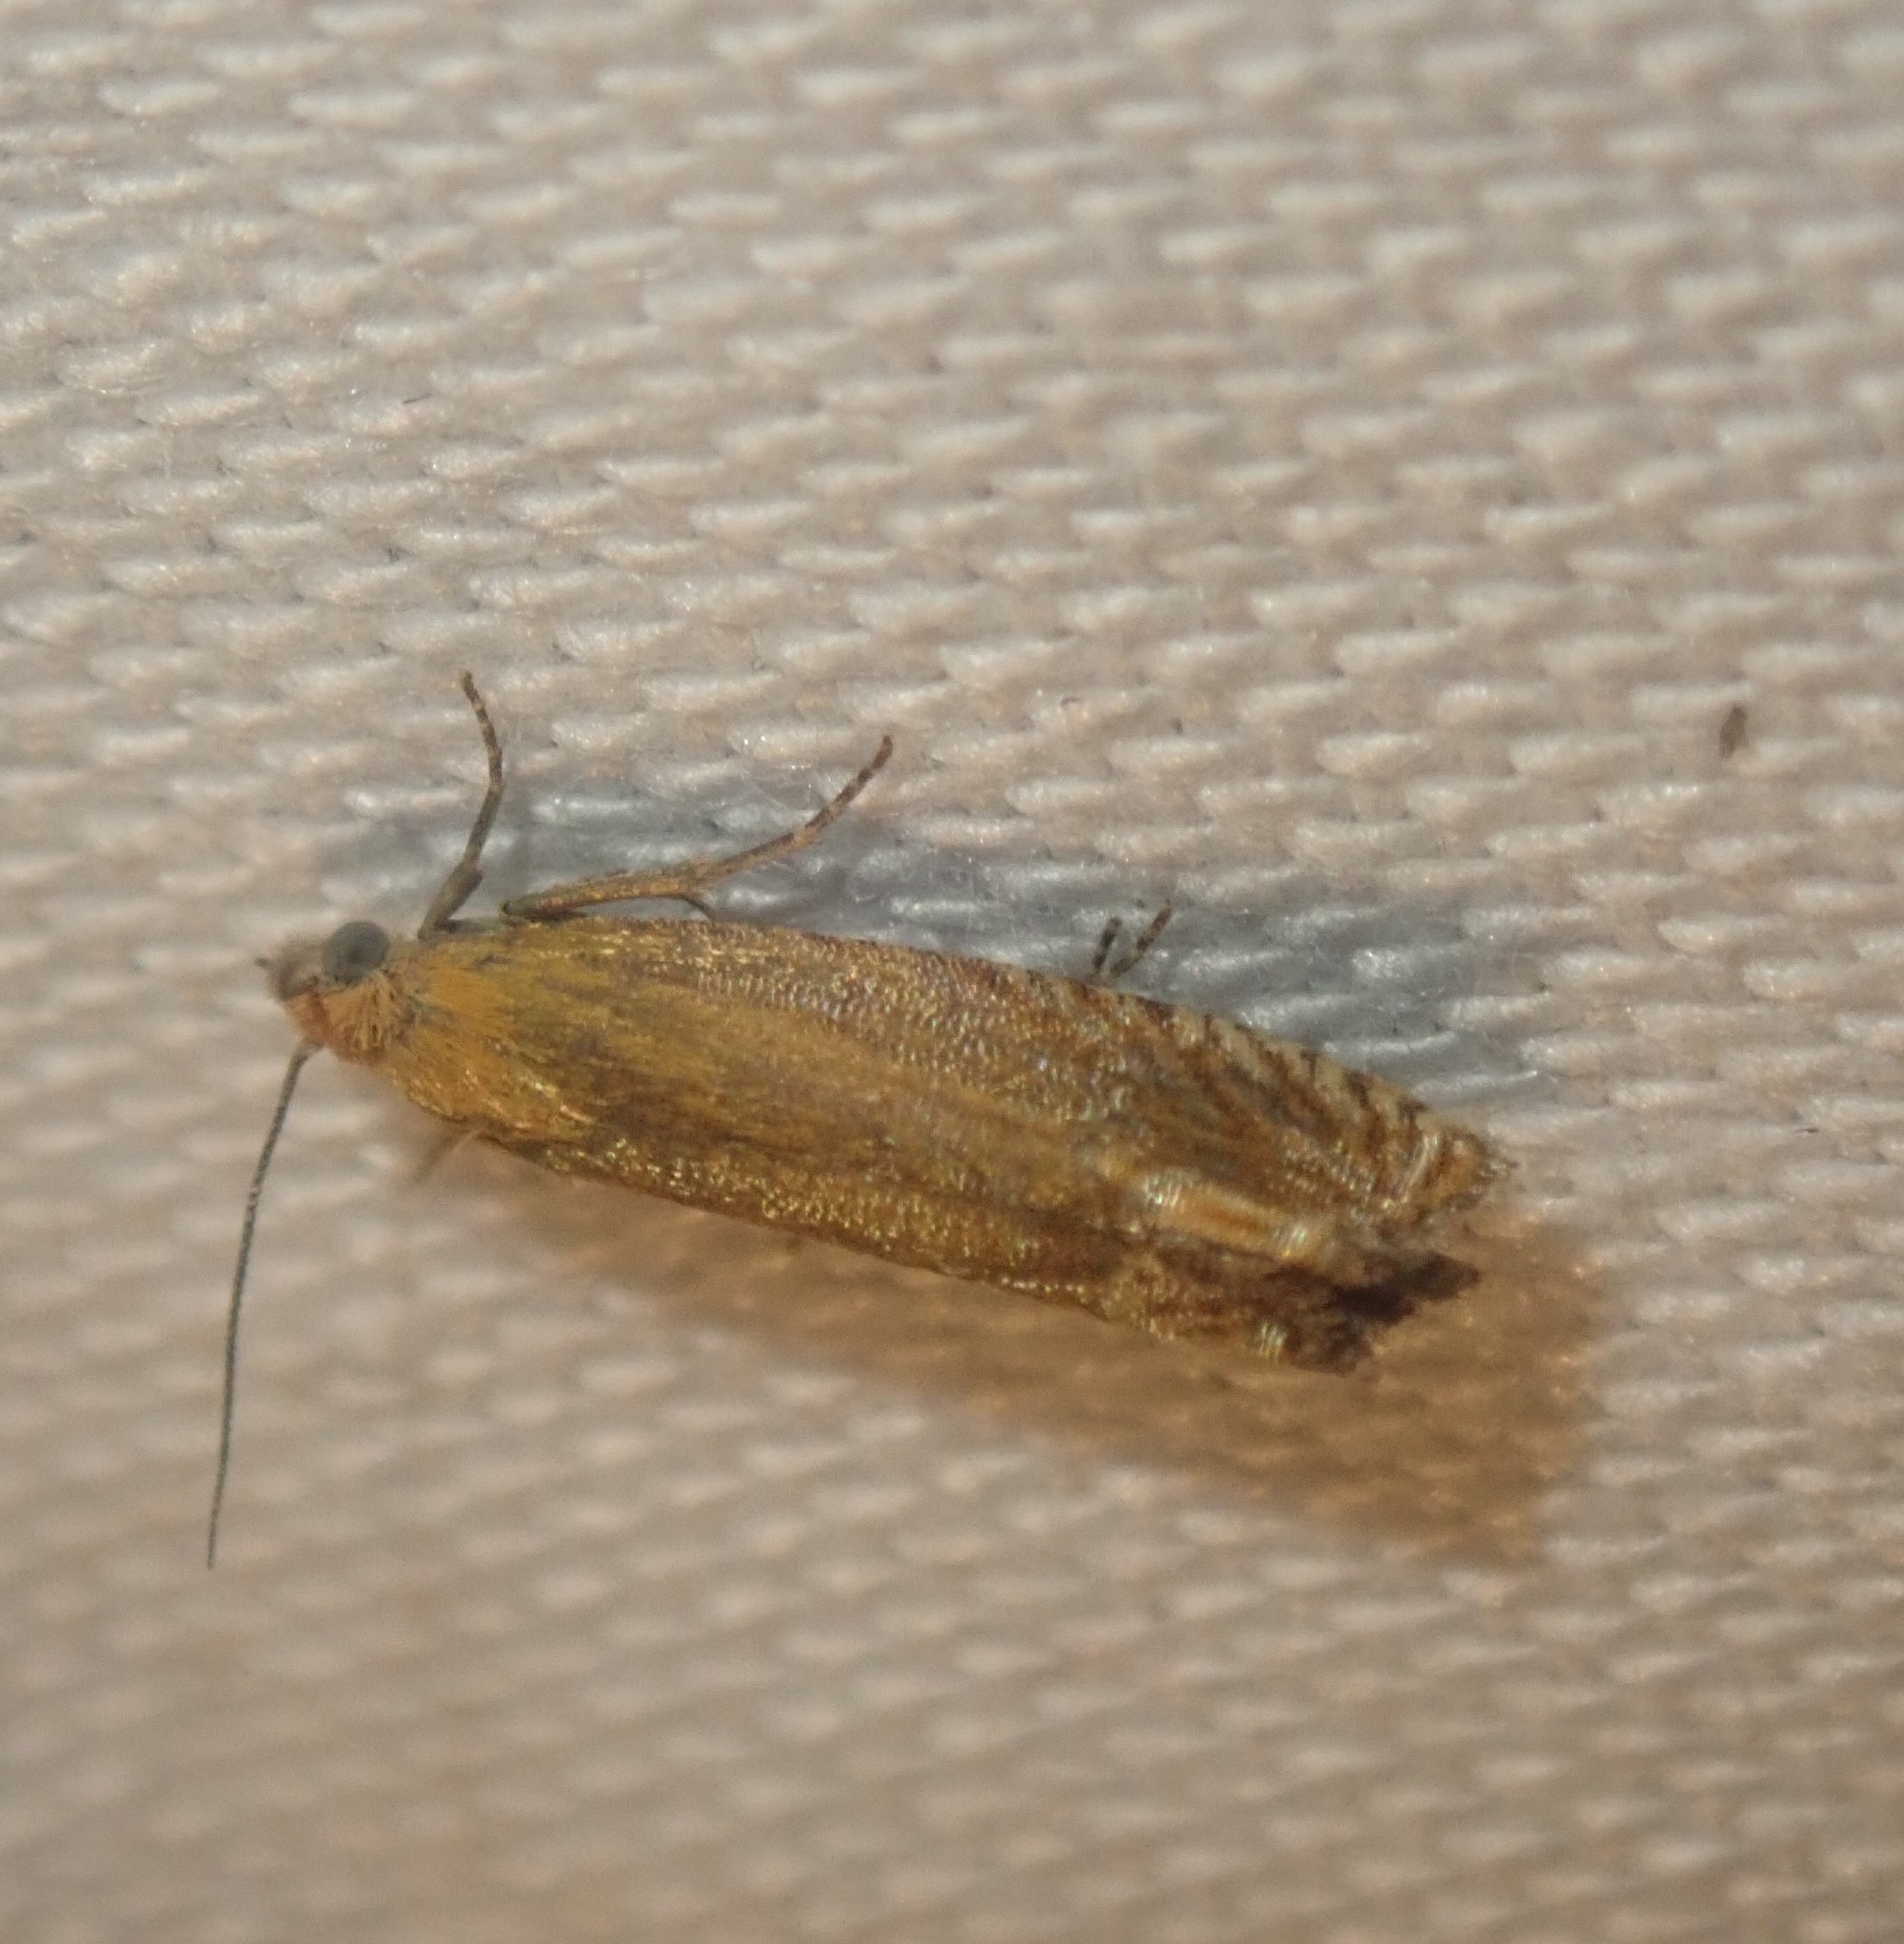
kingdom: Animalia
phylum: Arthropoda
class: Insecta
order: Lepidoptera
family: Tortricidae
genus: Lathronympha
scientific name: Lathronympha strigana
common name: Red piercer
